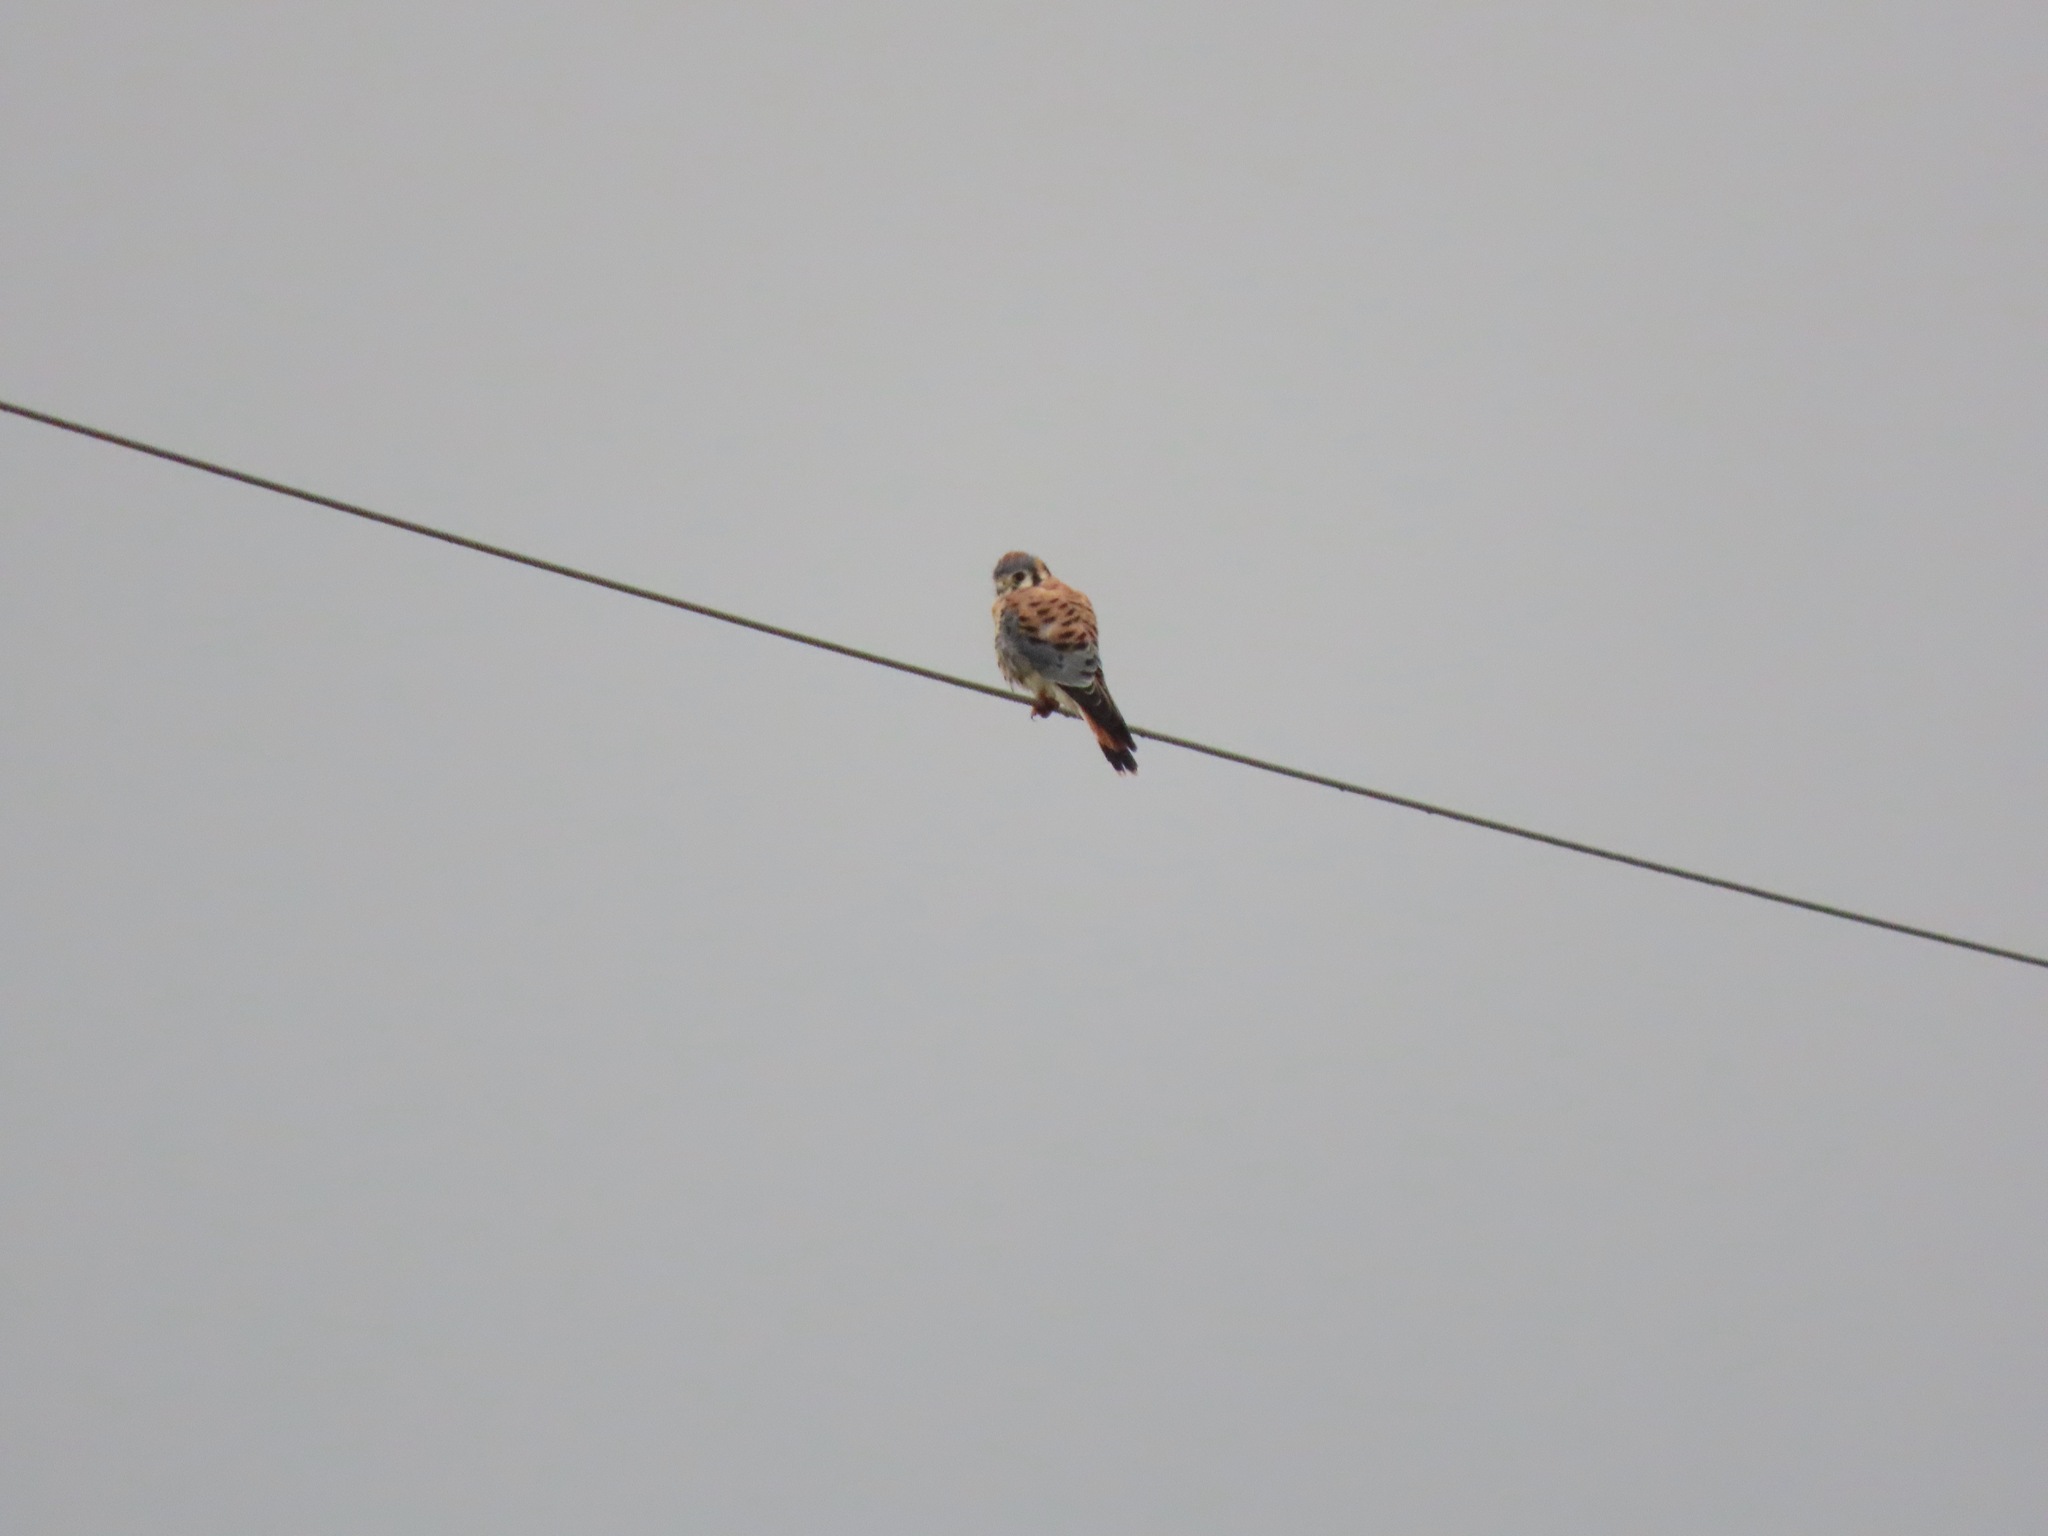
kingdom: Animalia
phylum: Chordata
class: Aves
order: Falconiformes
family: Falconidae
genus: Falco
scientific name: Falco sparverius
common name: American kestrel
